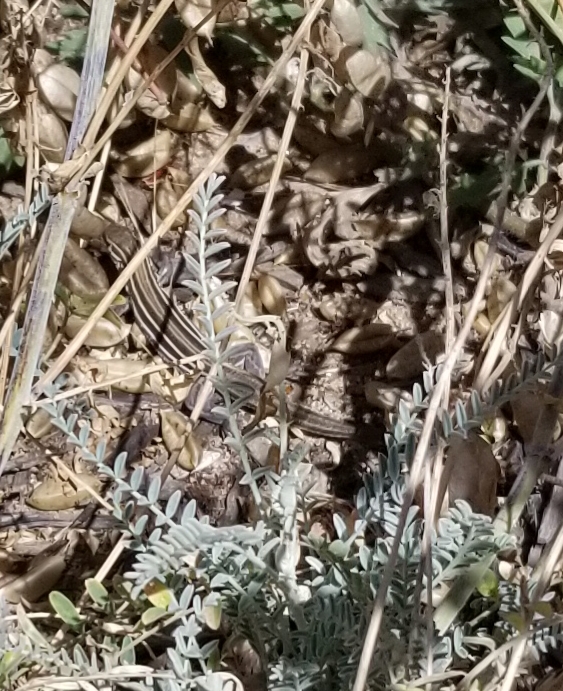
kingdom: Animalia
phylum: Chordata
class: Squamata
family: Teiidae
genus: Aspidoscelis
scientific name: Aspidoscelis hyperythrus
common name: Orange-throated race-runner
